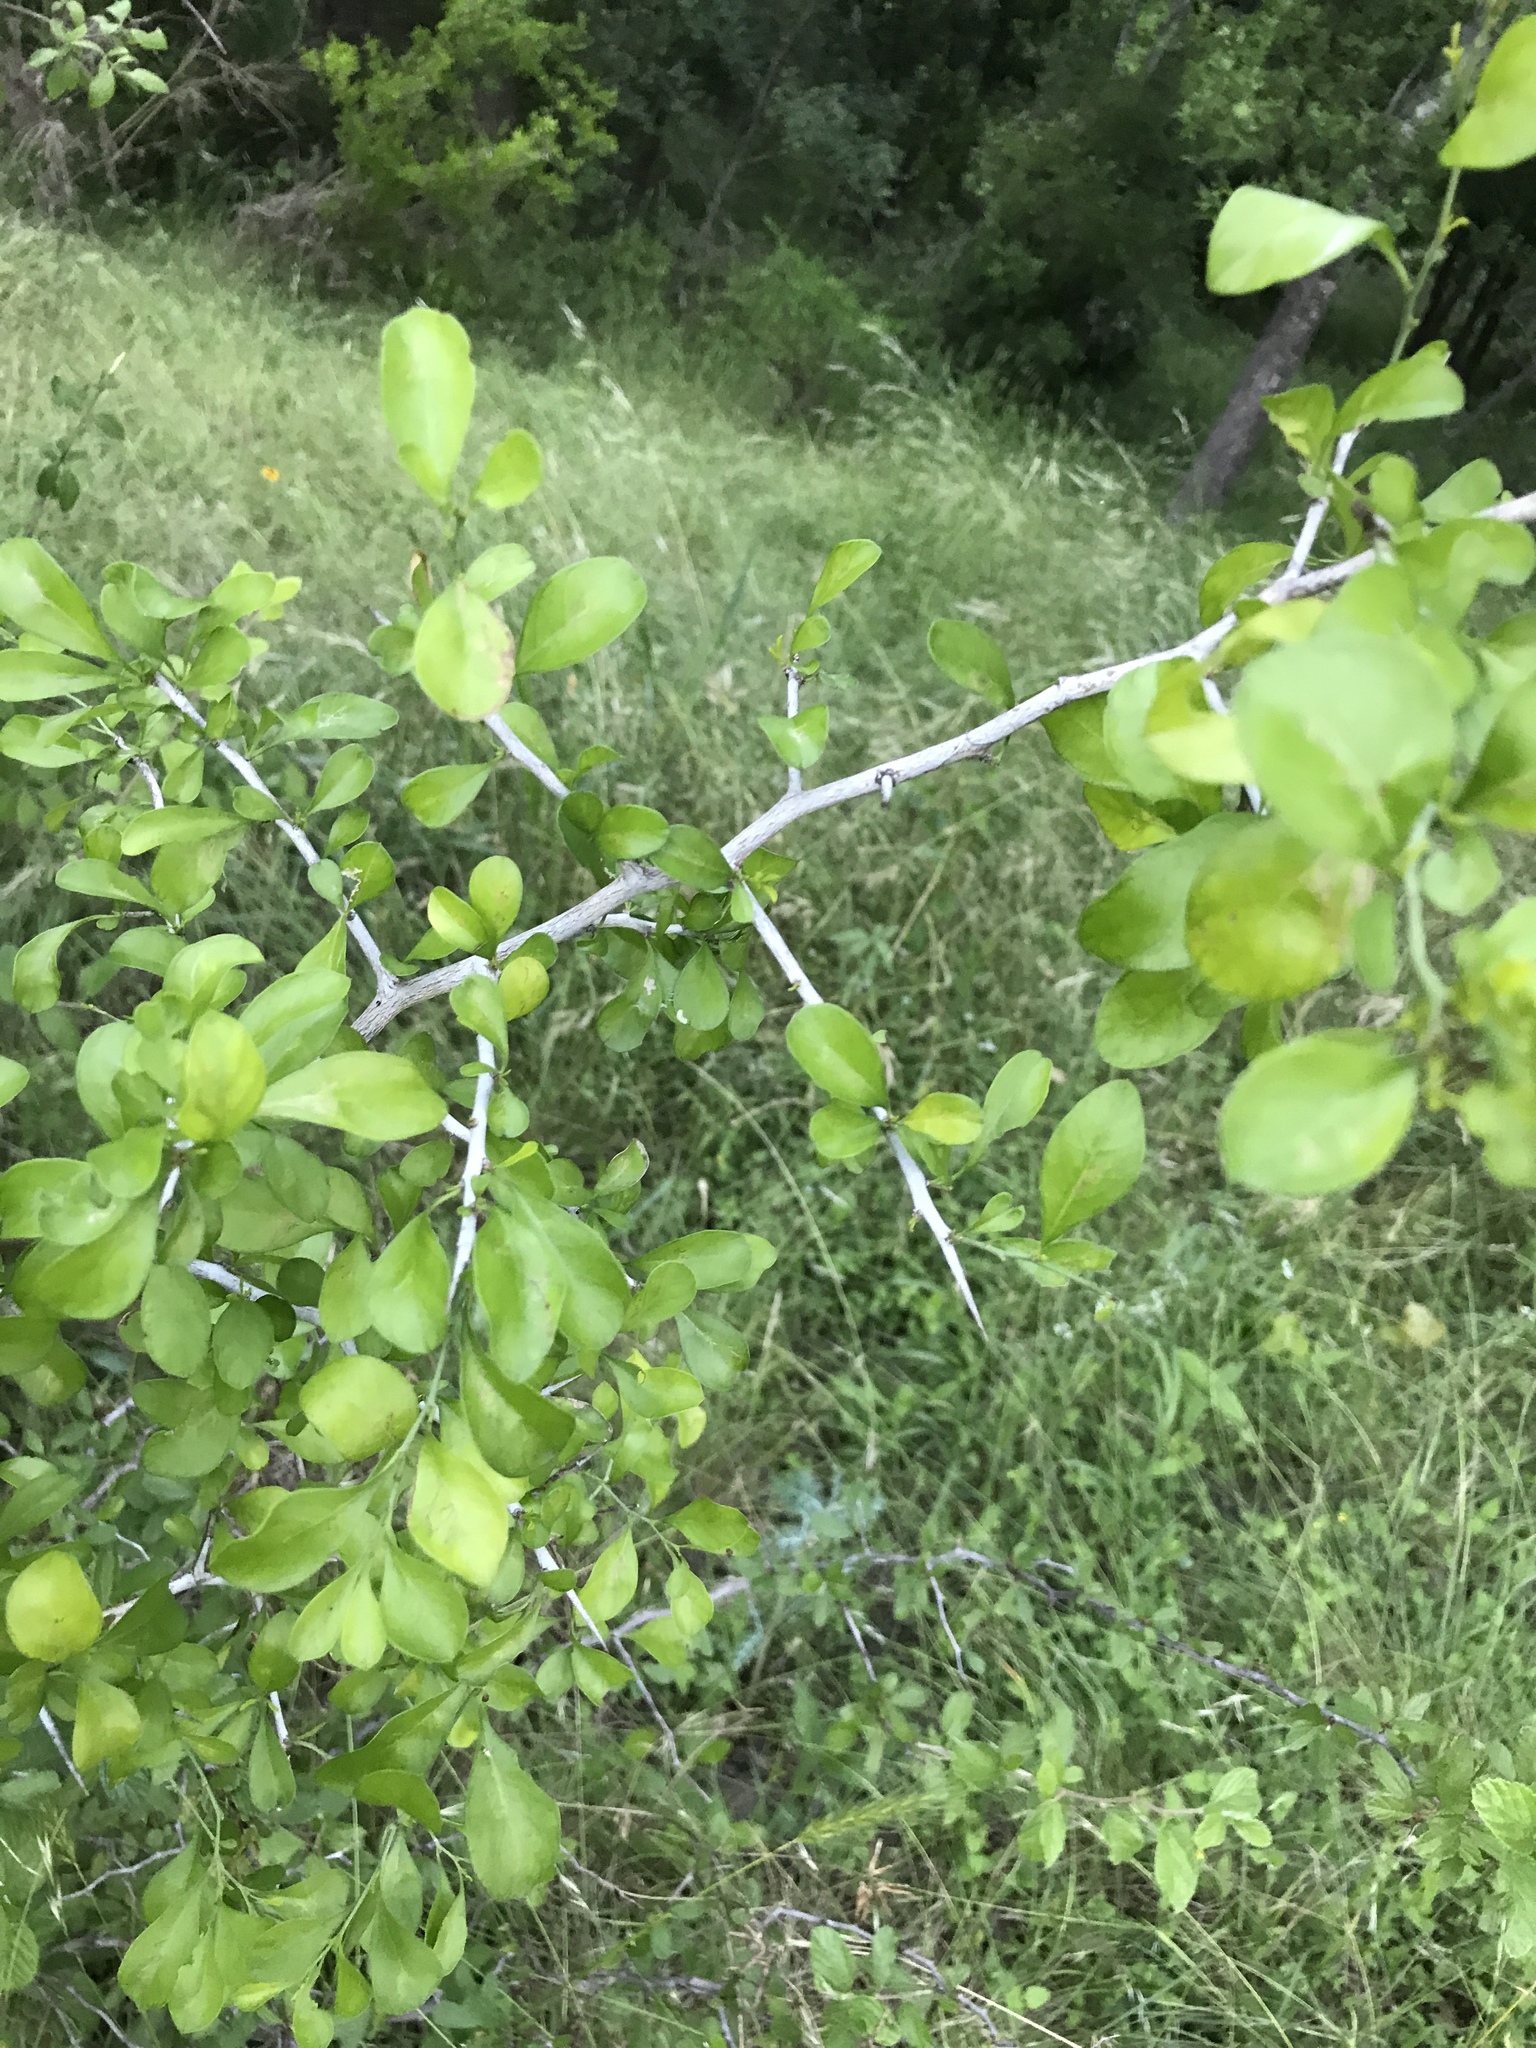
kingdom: Plantae
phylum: Tracheophyta
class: Magnoliopsida
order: Rosales
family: Rhamnaceae
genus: Condalia
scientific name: Condalia hookeri
